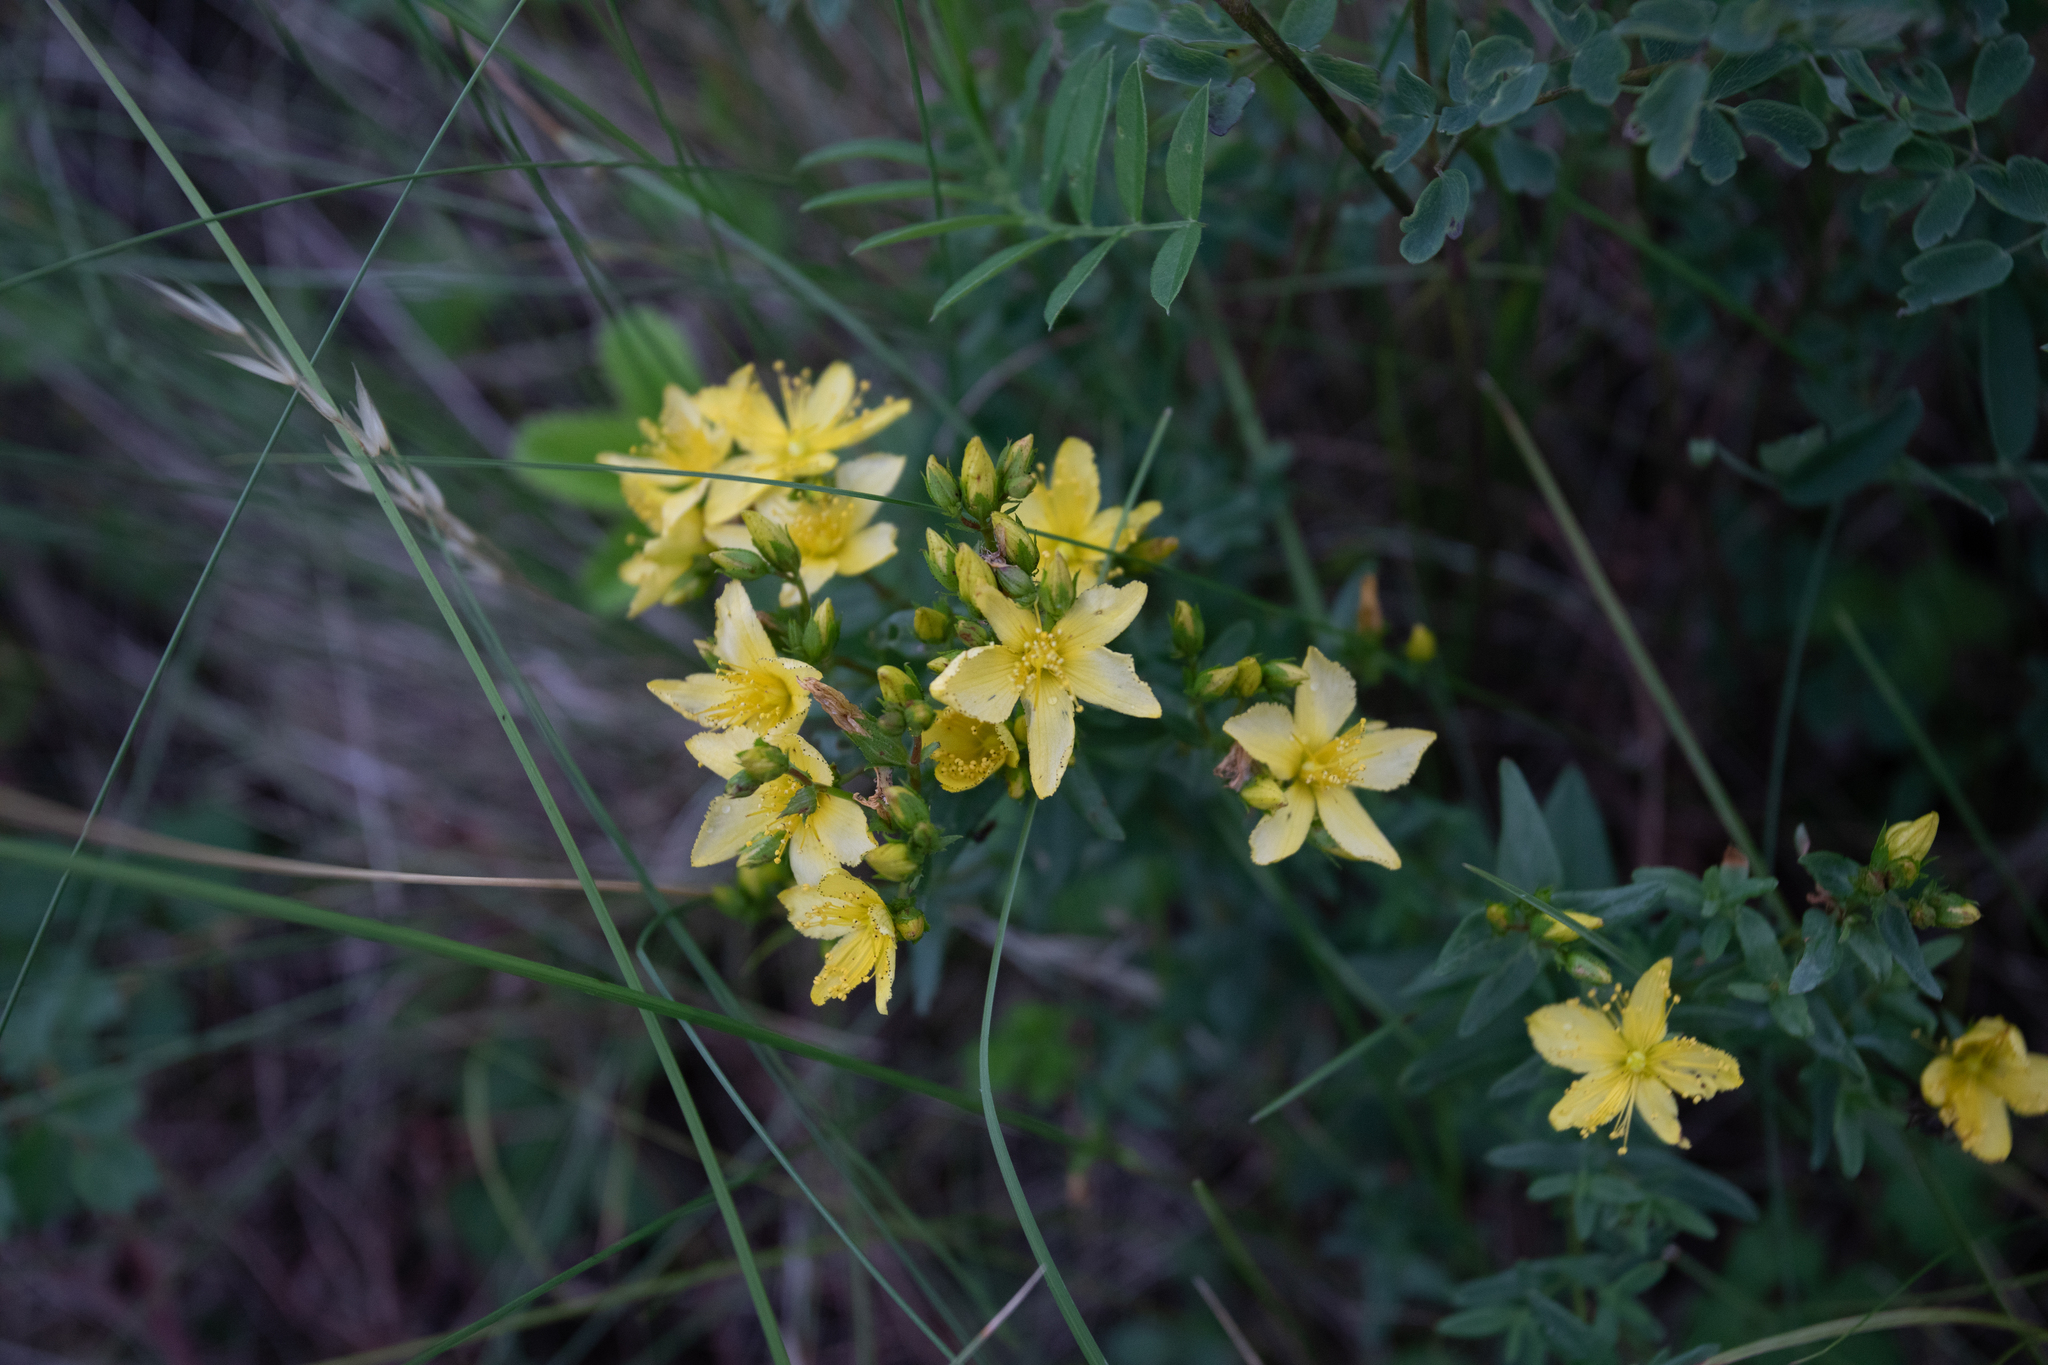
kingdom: Plantae
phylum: Tracheophyta
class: Magnoliopsida
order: Malpighiales
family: Hypericaceae
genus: Hypericum
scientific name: Hypericum elegans
